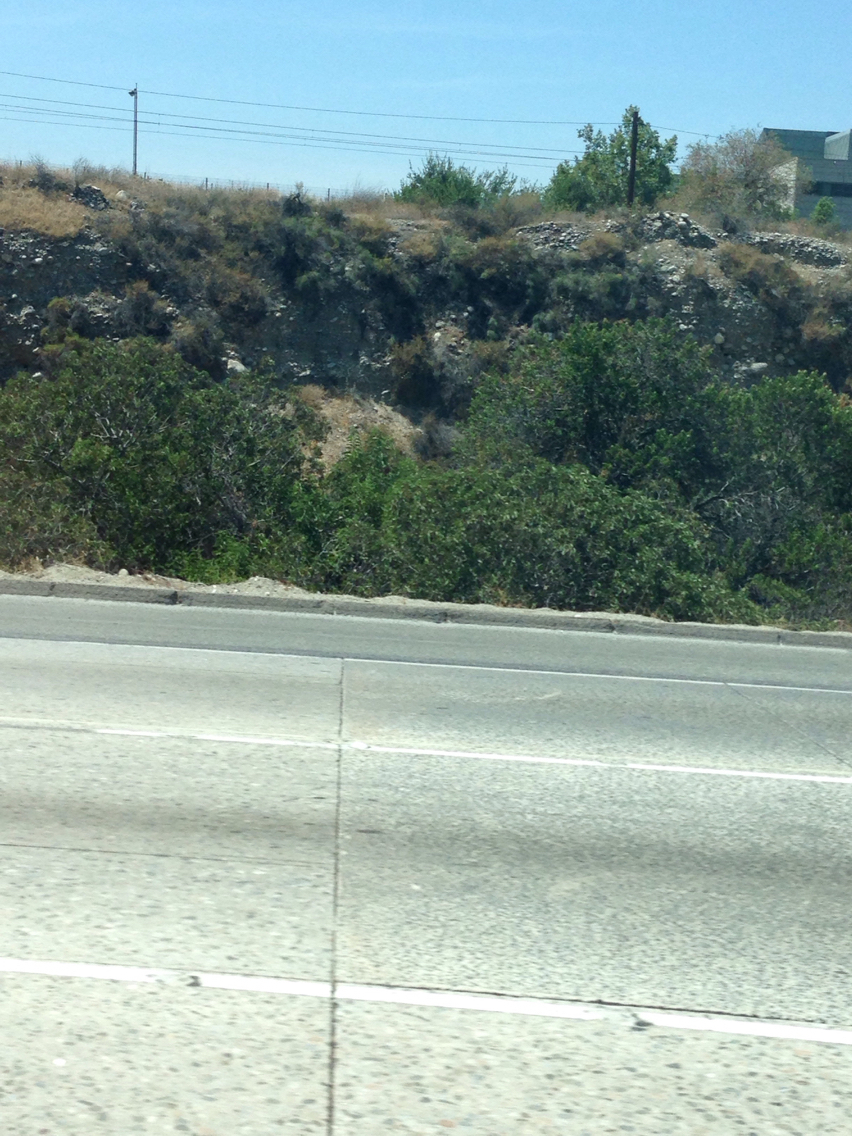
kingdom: Plantae
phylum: Tracheophyta
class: Magnoliopsida
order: Sapindales
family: Anacardiaceae
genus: Malosma
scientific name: Malosma laurina
